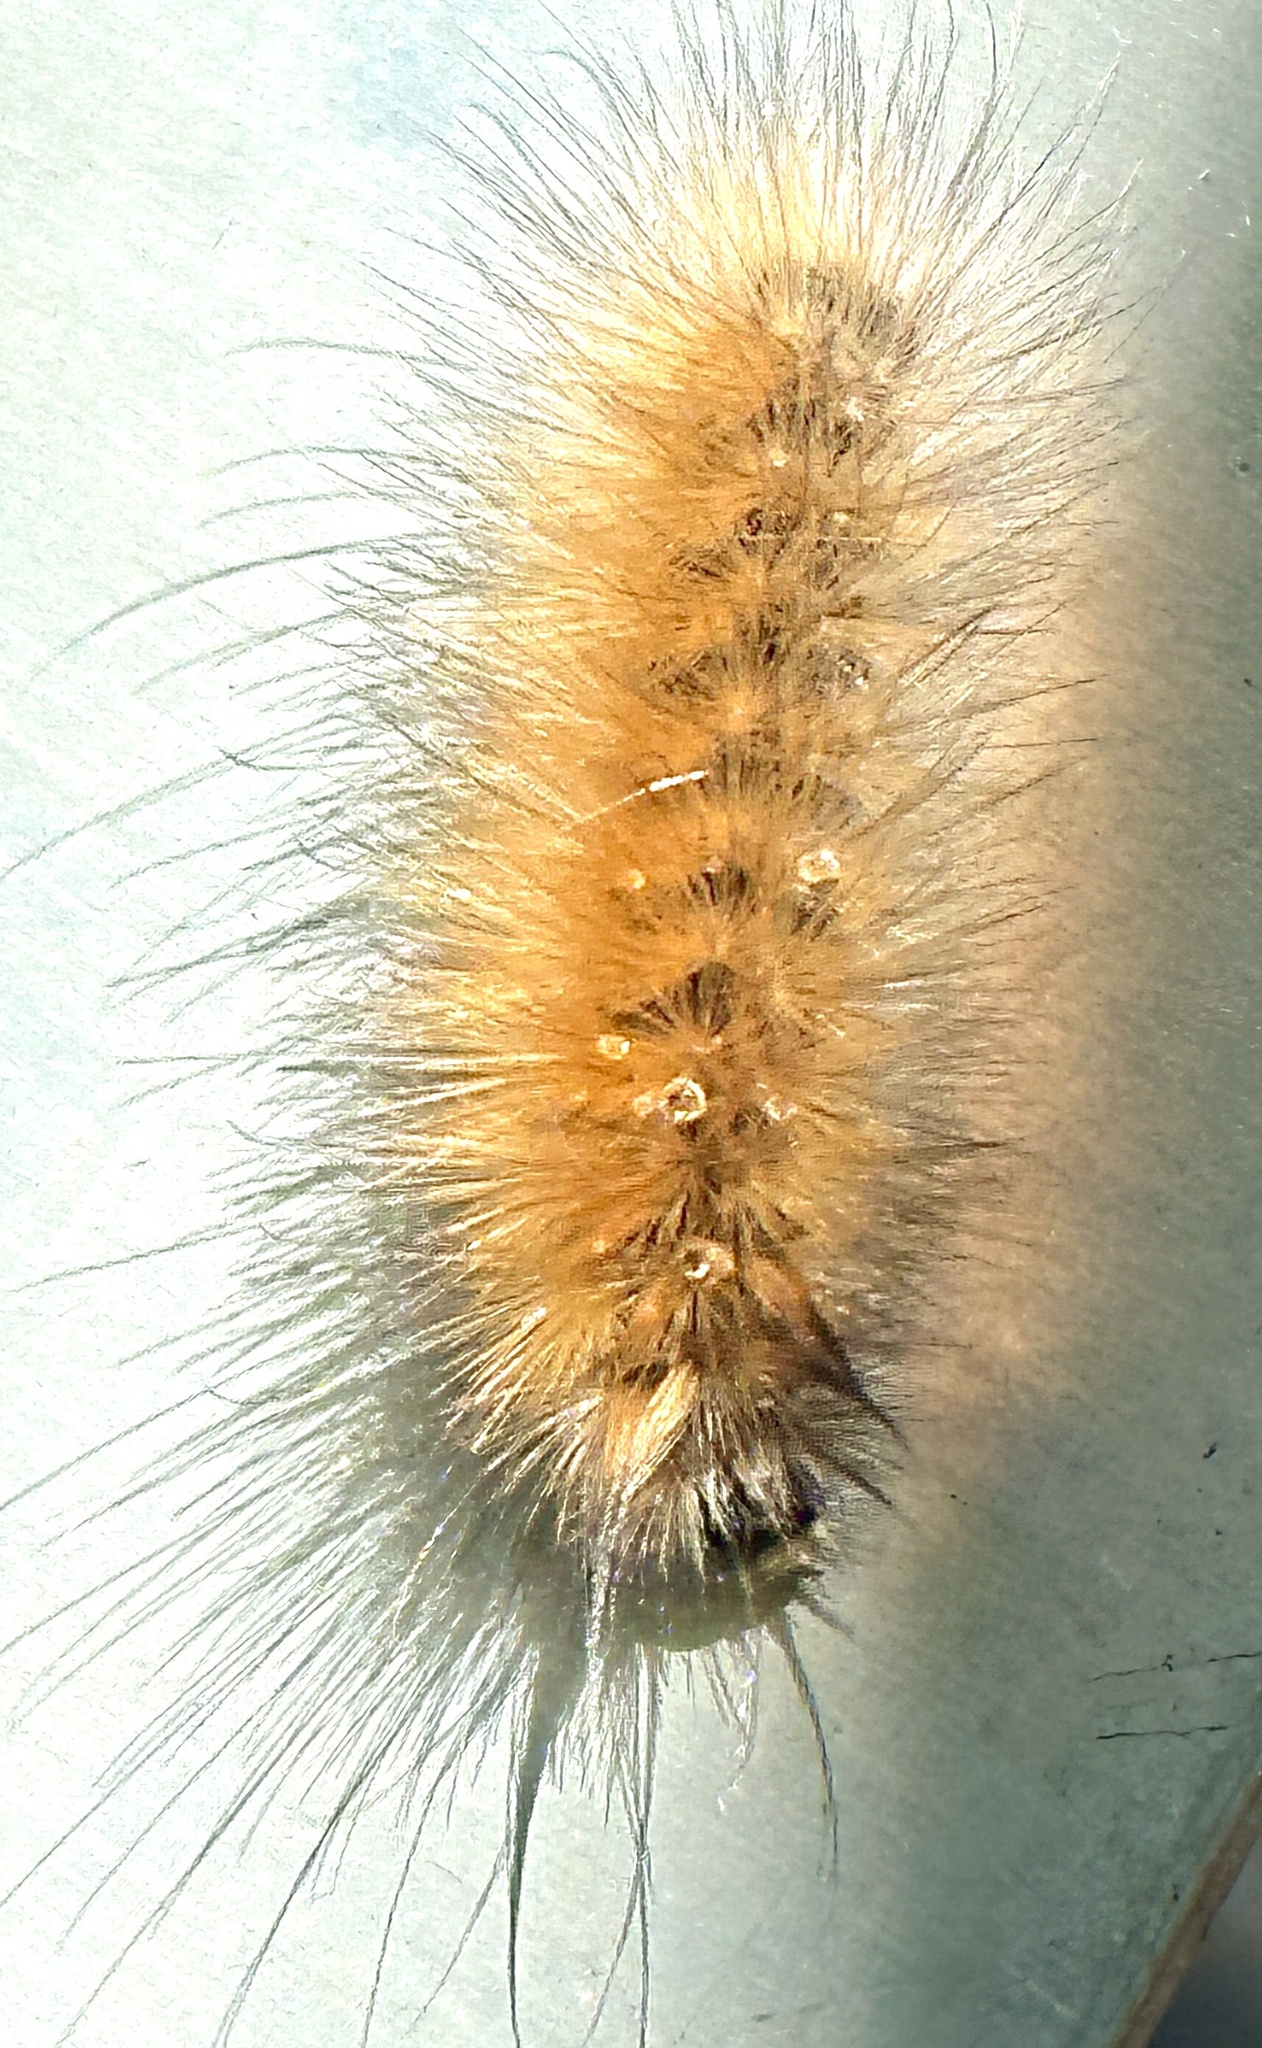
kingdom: Animalia
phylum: Arthropoda
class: Insecta
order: Lepidoptera
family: Erebidae
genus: Spilosoma
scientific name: Spilosoma virginica
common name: Virginia tiger moth
